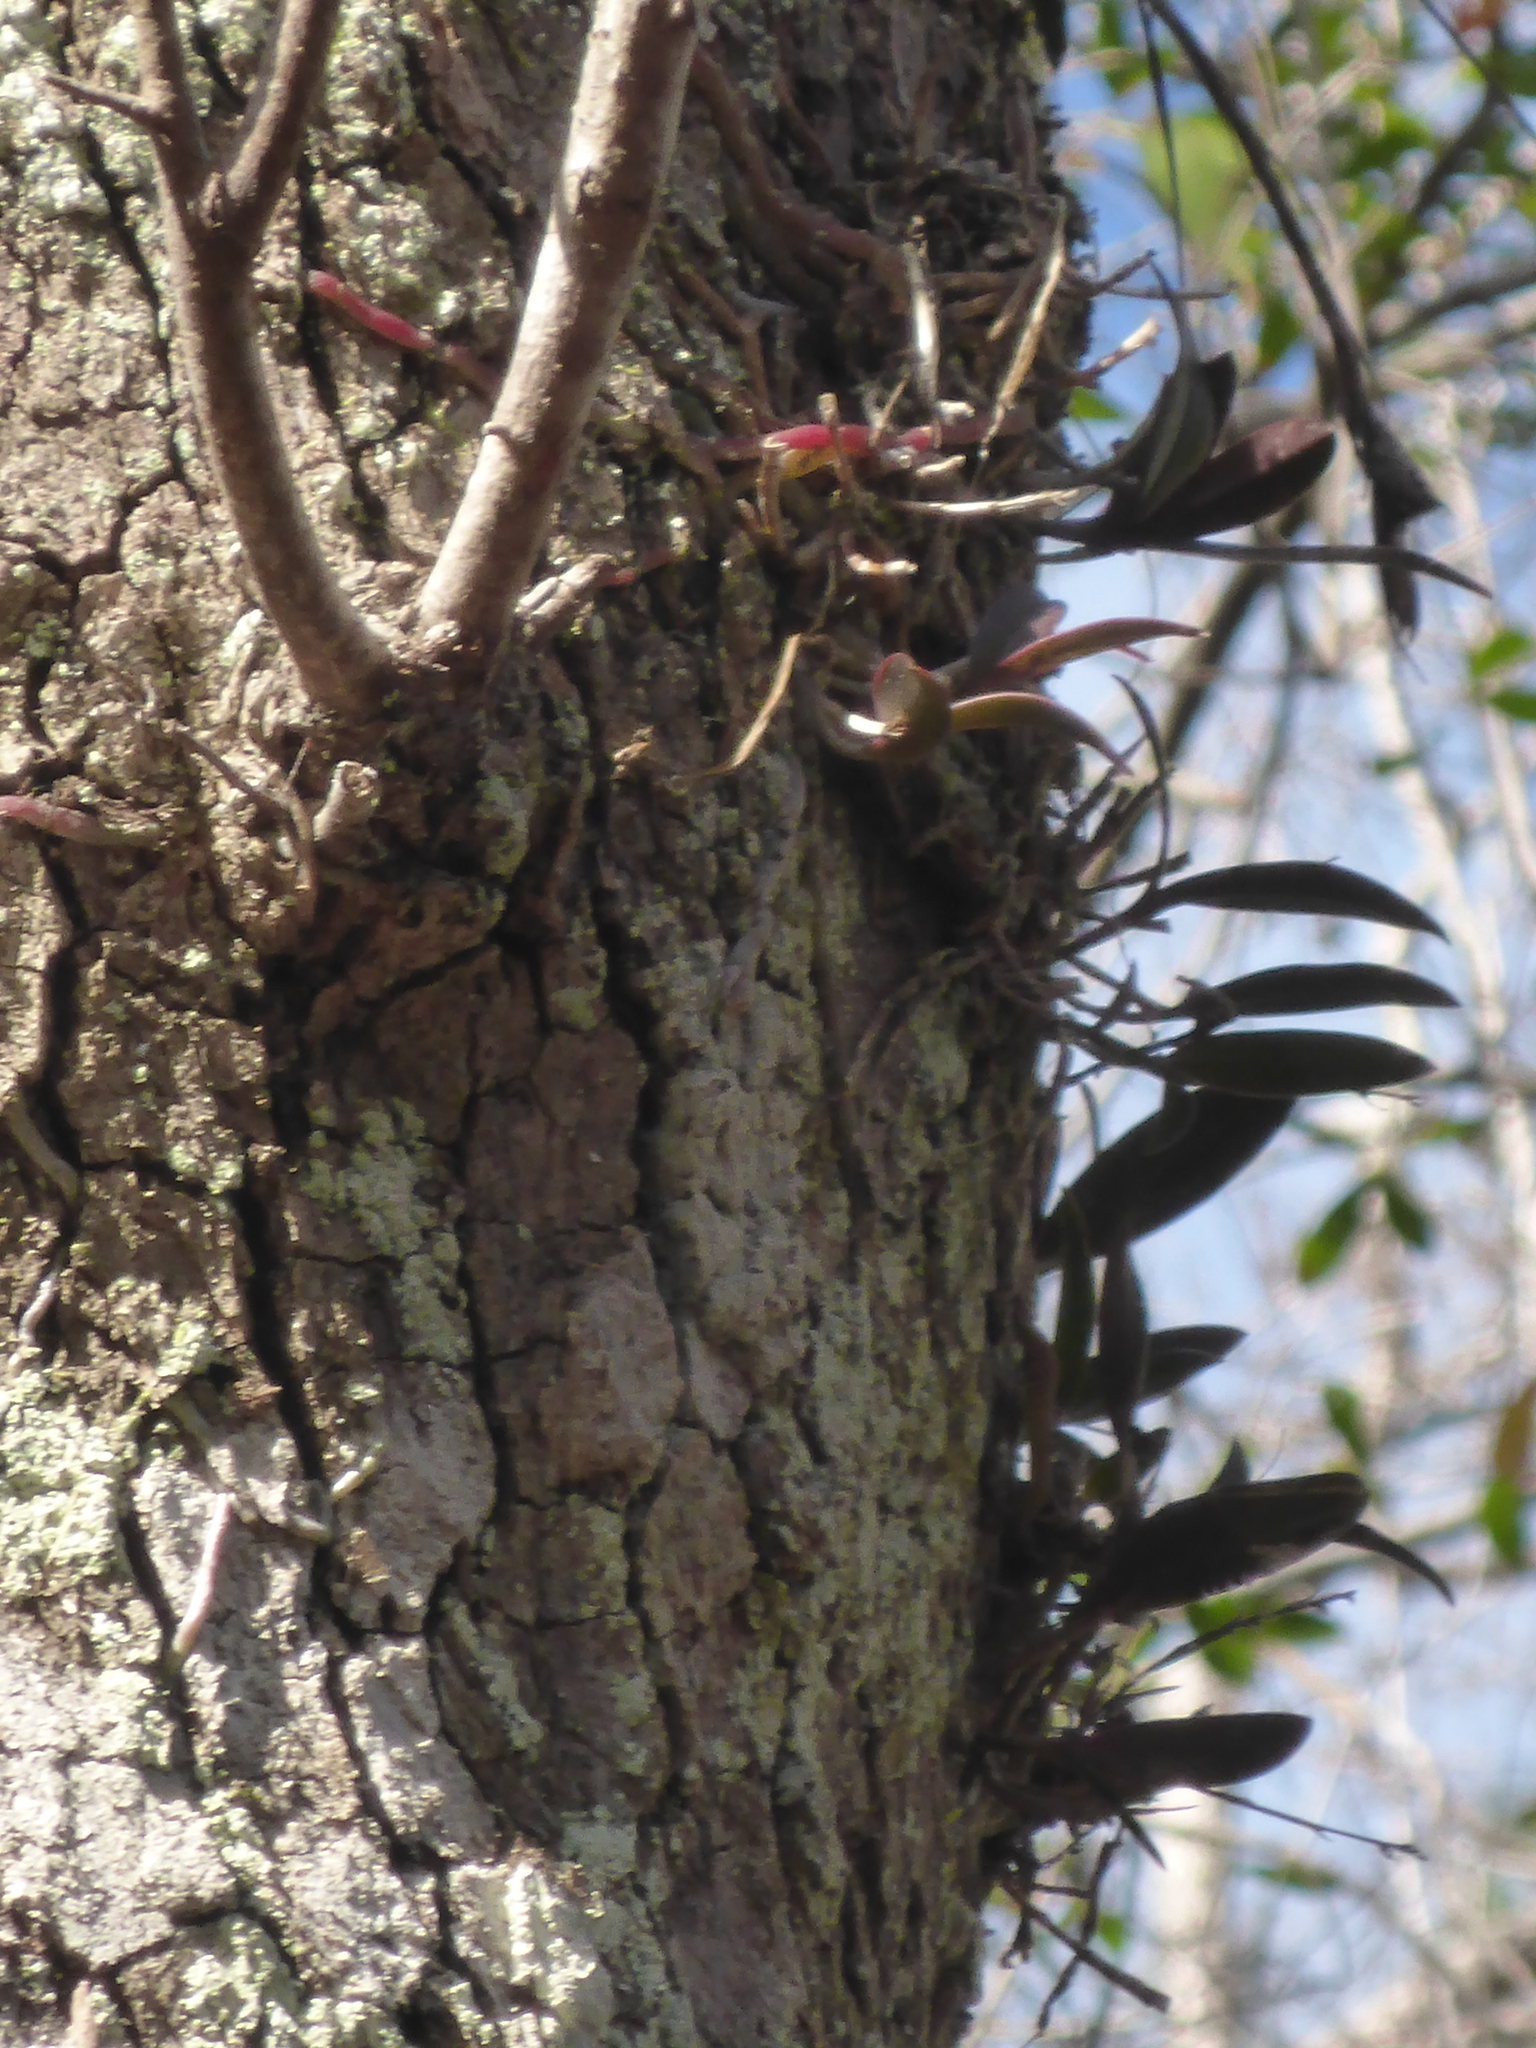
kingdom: Plantae
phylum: Tracheophyta
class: Liliopsida
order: Asparagales
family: Orchidaceae
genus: Epidendrum
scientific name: Epidendrum conopseum
